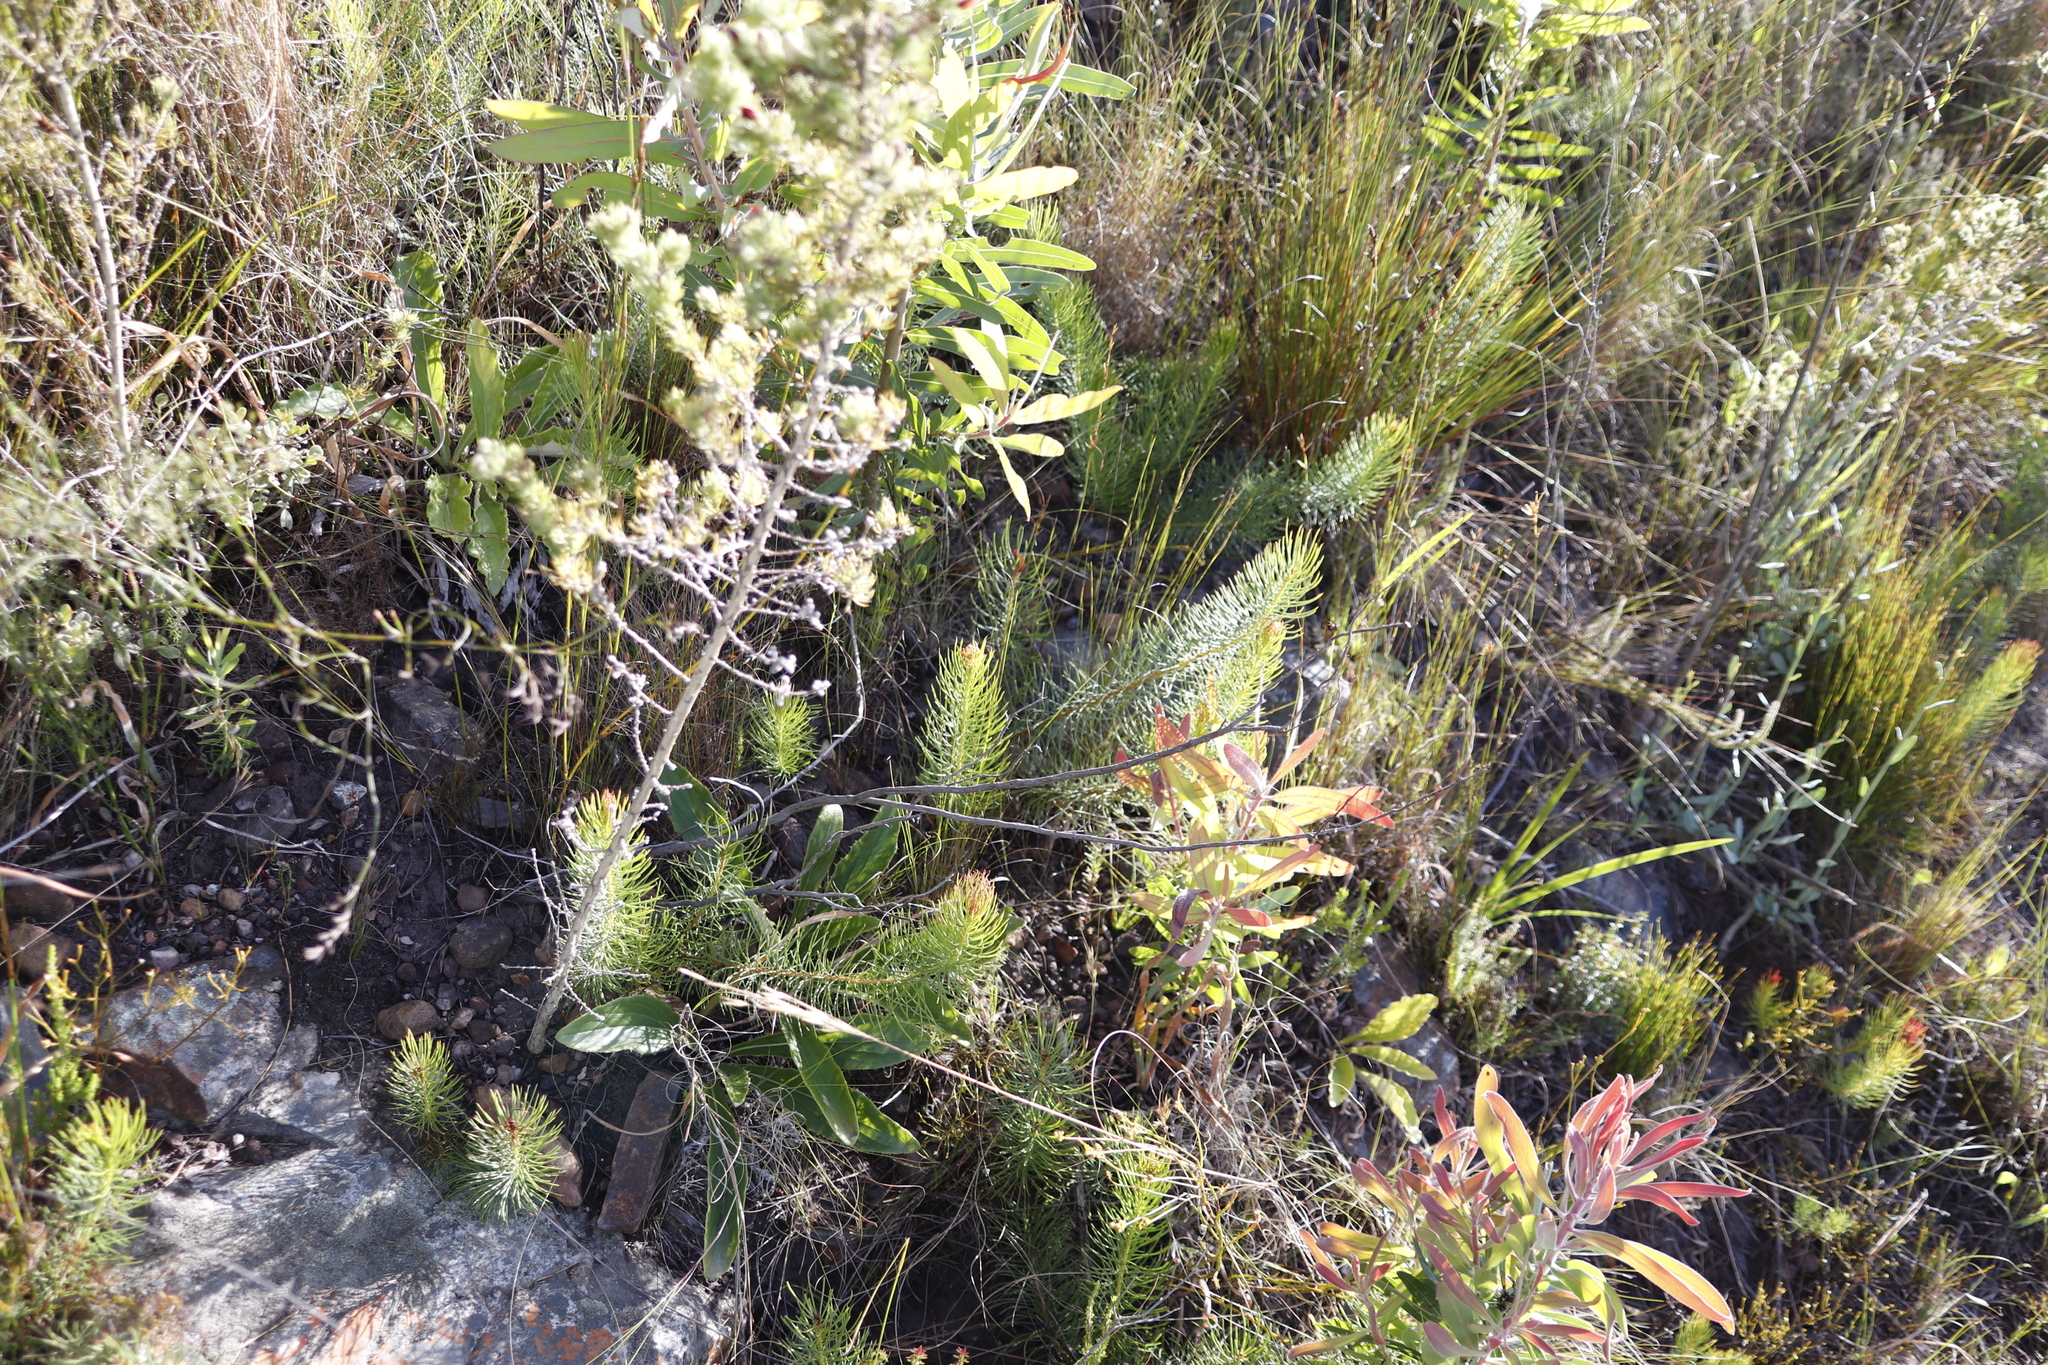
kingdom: Plantae
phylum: Tracheophyta
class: Magnoliopsida
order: Proteales
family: Proteaceae
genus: Protea
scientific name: Protea neriifolia
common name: Blue sugarbush
